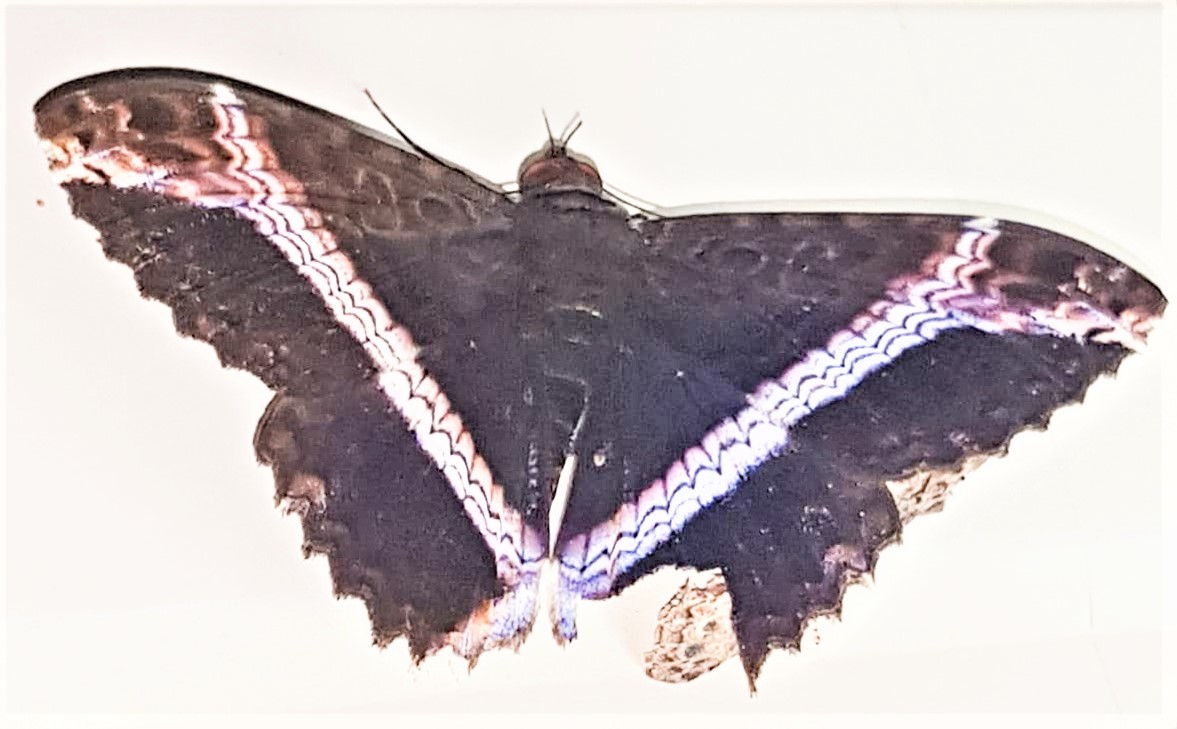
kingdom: Animalia
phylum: Arthropoda
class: Insecta
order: Lepidoptera
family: Erebidae
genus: Letis
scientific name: Letis nymphaloides
